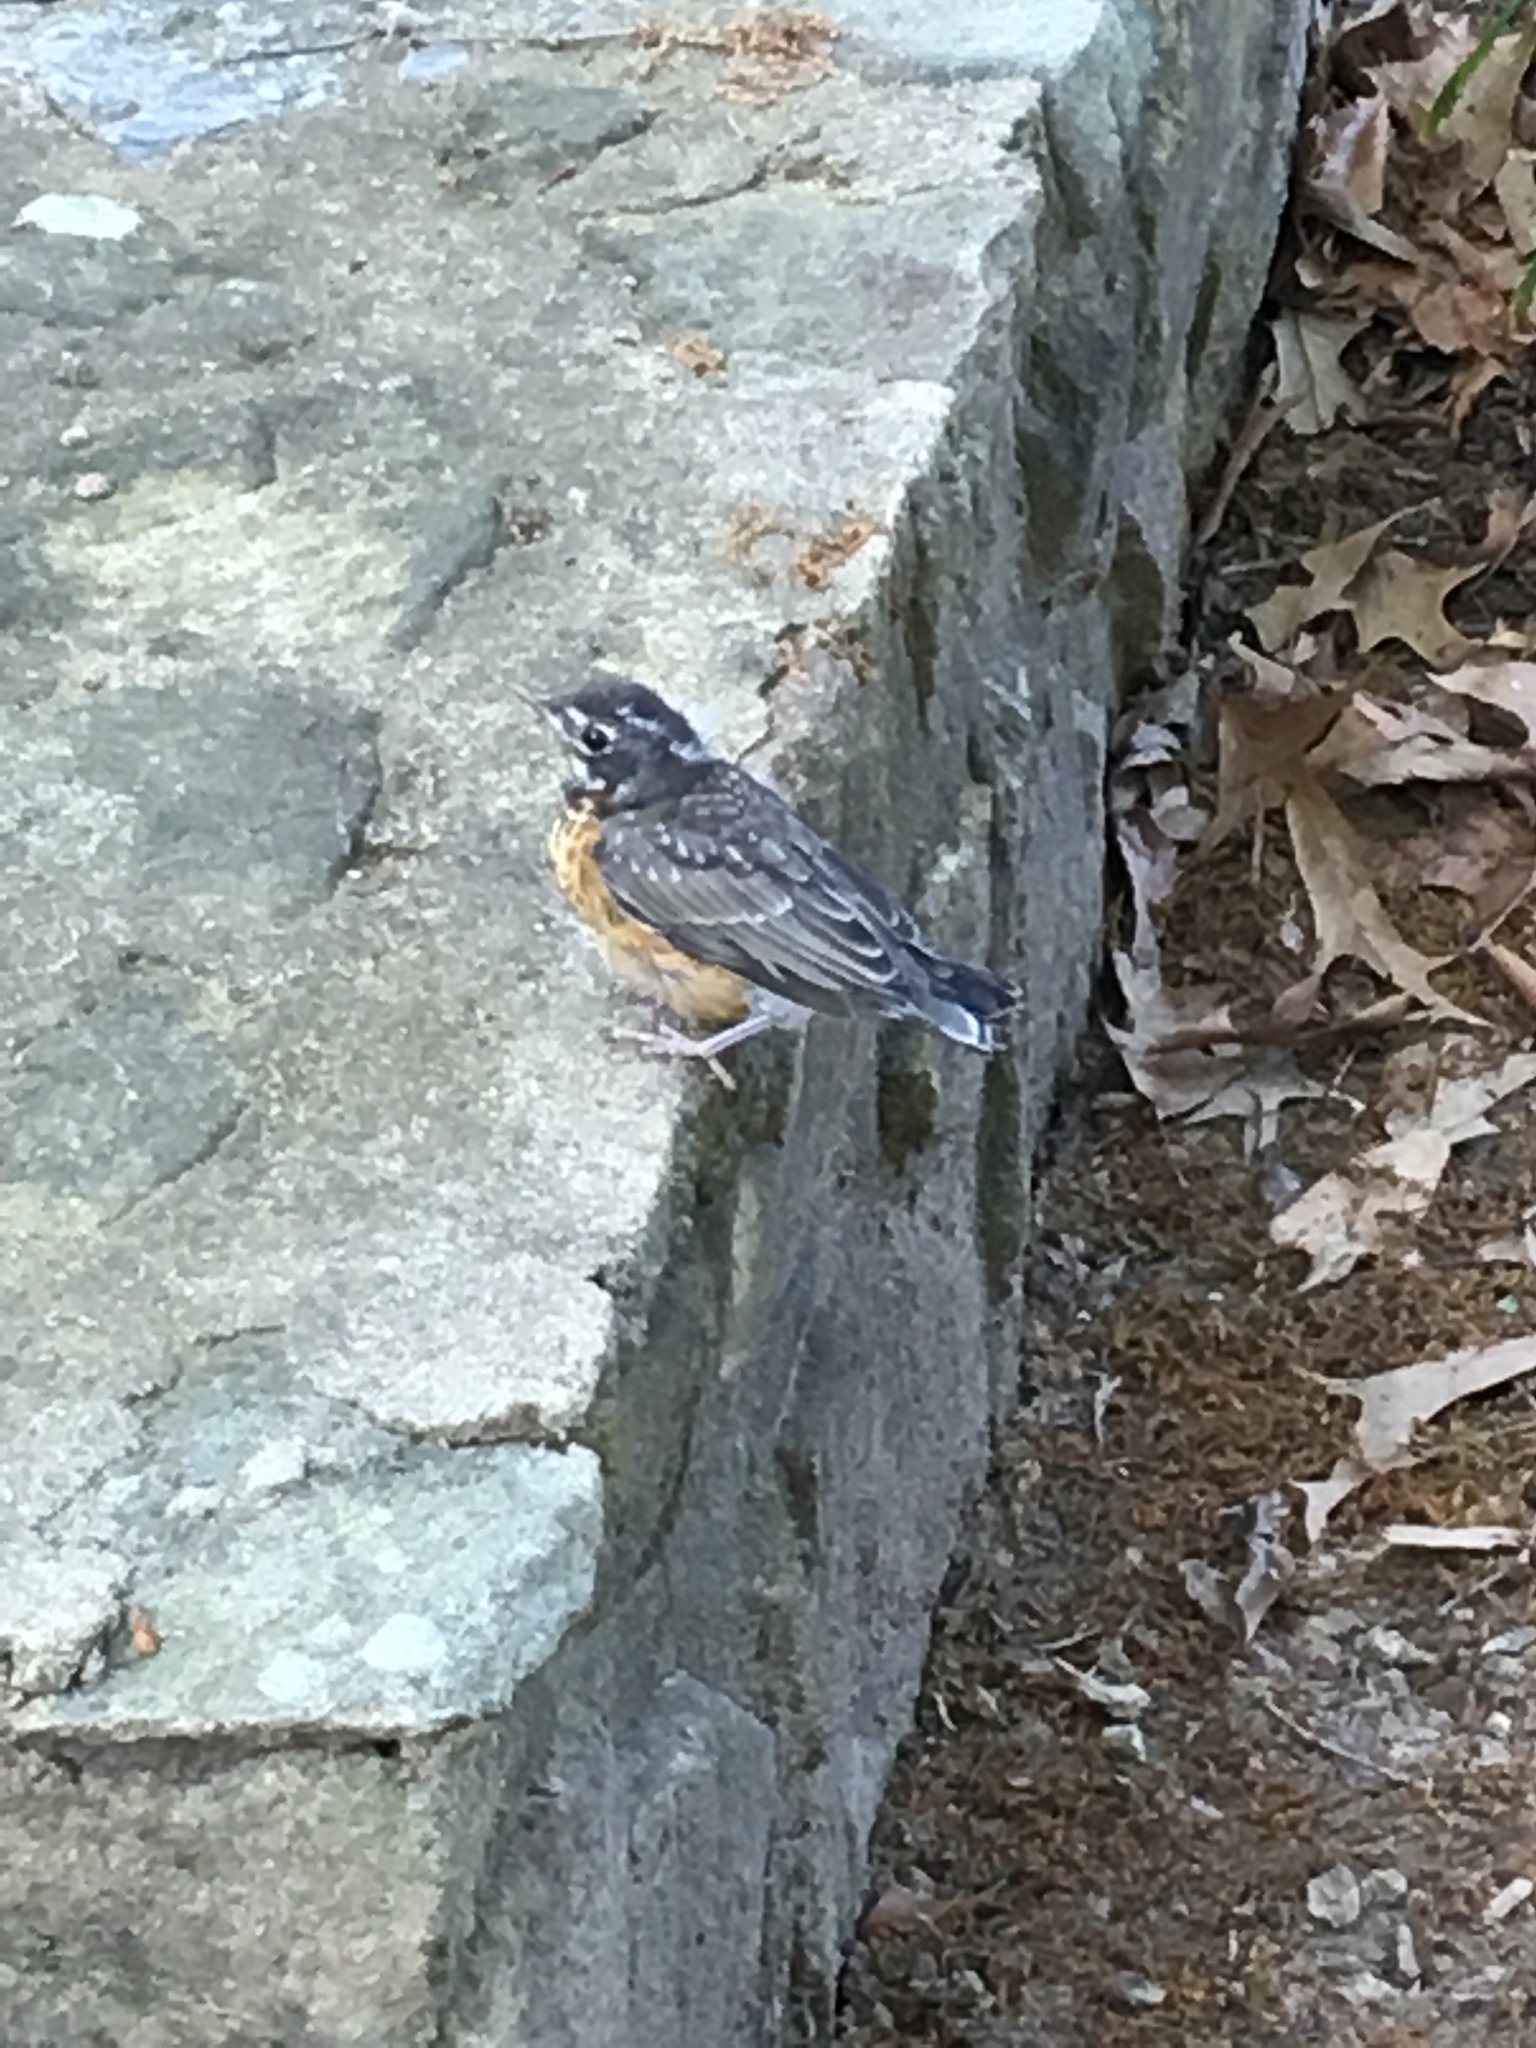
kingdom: Animalia
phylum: Chordata
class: Aves
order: Passeriformes
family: Turdidae
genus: Turdus
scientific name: Turdus migratorius
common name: American robin
